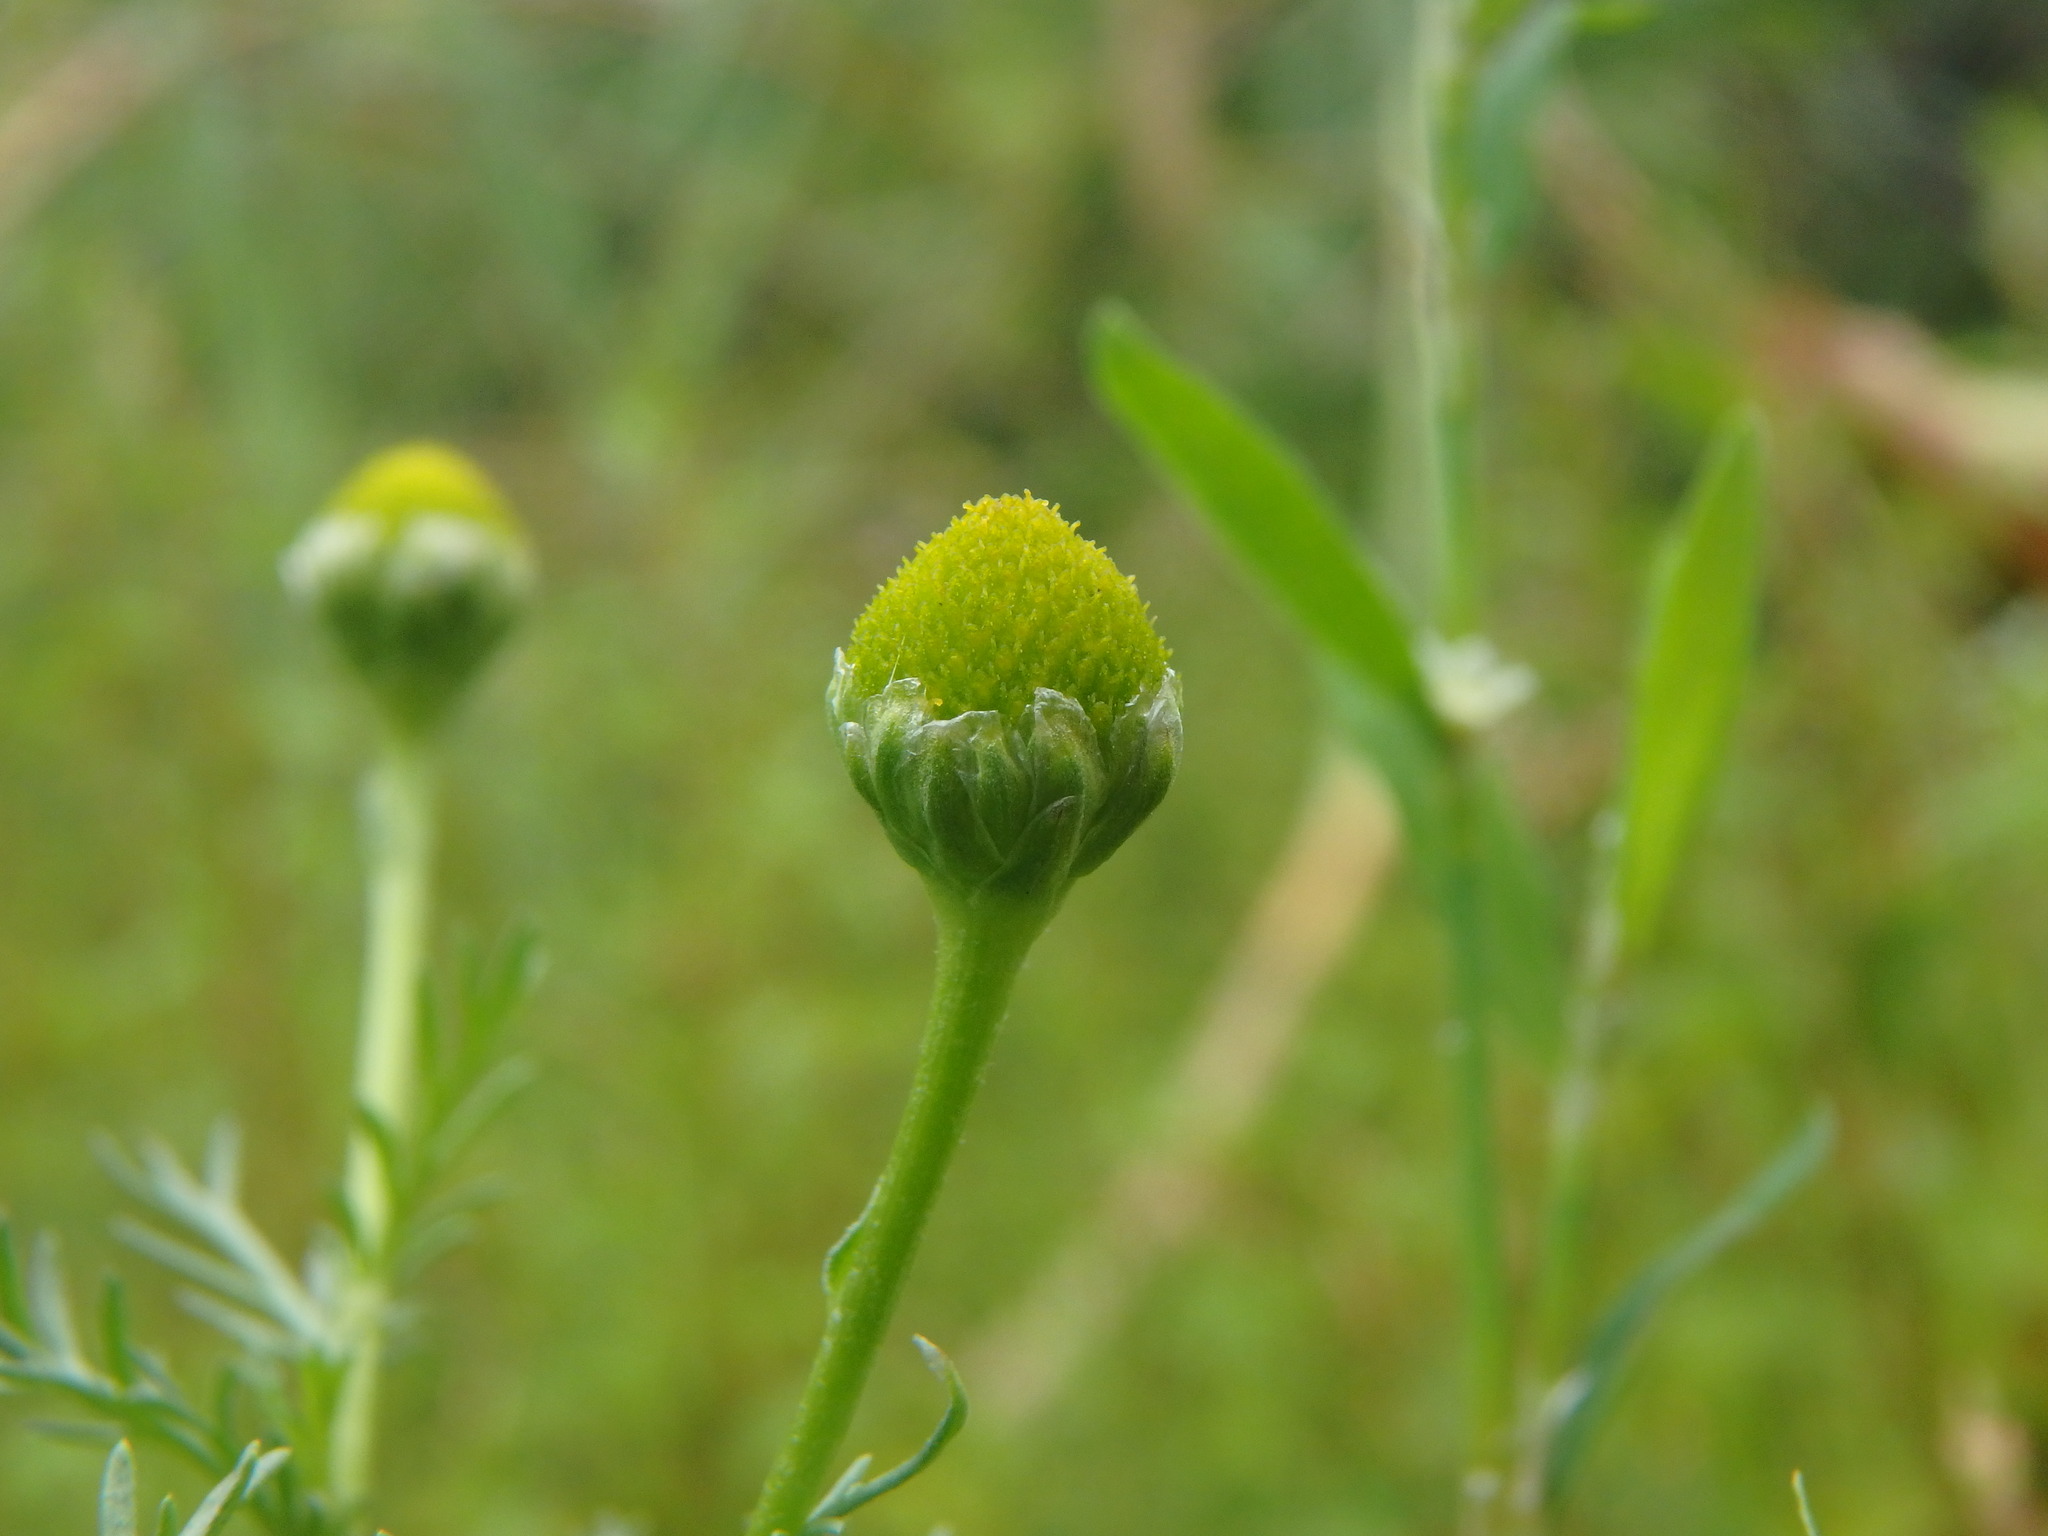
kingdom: Plantae
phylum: Tracheophyta
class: Magnoliopsida
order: Asterales
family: Asteraceae
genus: Matricaria
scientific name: Matricaria discoidea
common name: Disc mayweed
